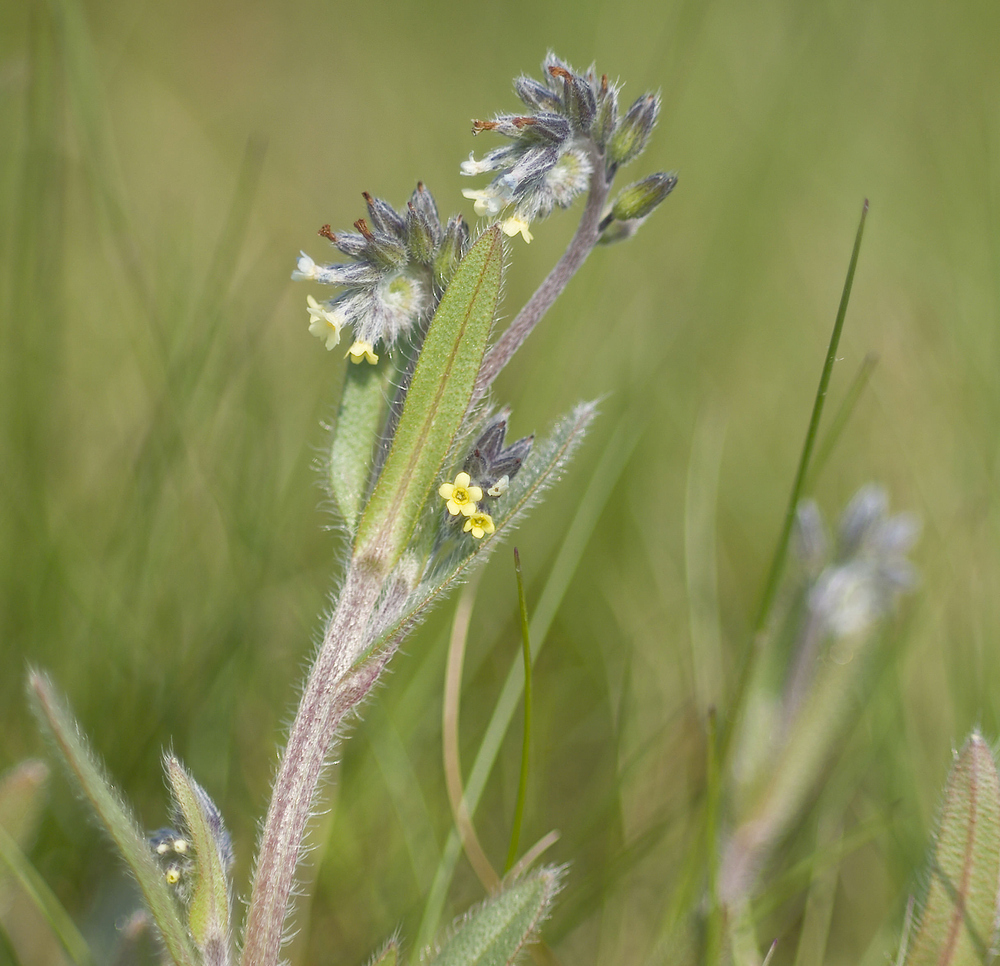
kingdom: Plantae
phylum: Tracheophyta
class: Magnoliopsida
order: Boraginales
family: Boraginaceae
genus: Myosotis
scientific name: Myosotis discolor
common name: Changing forget-me-not
